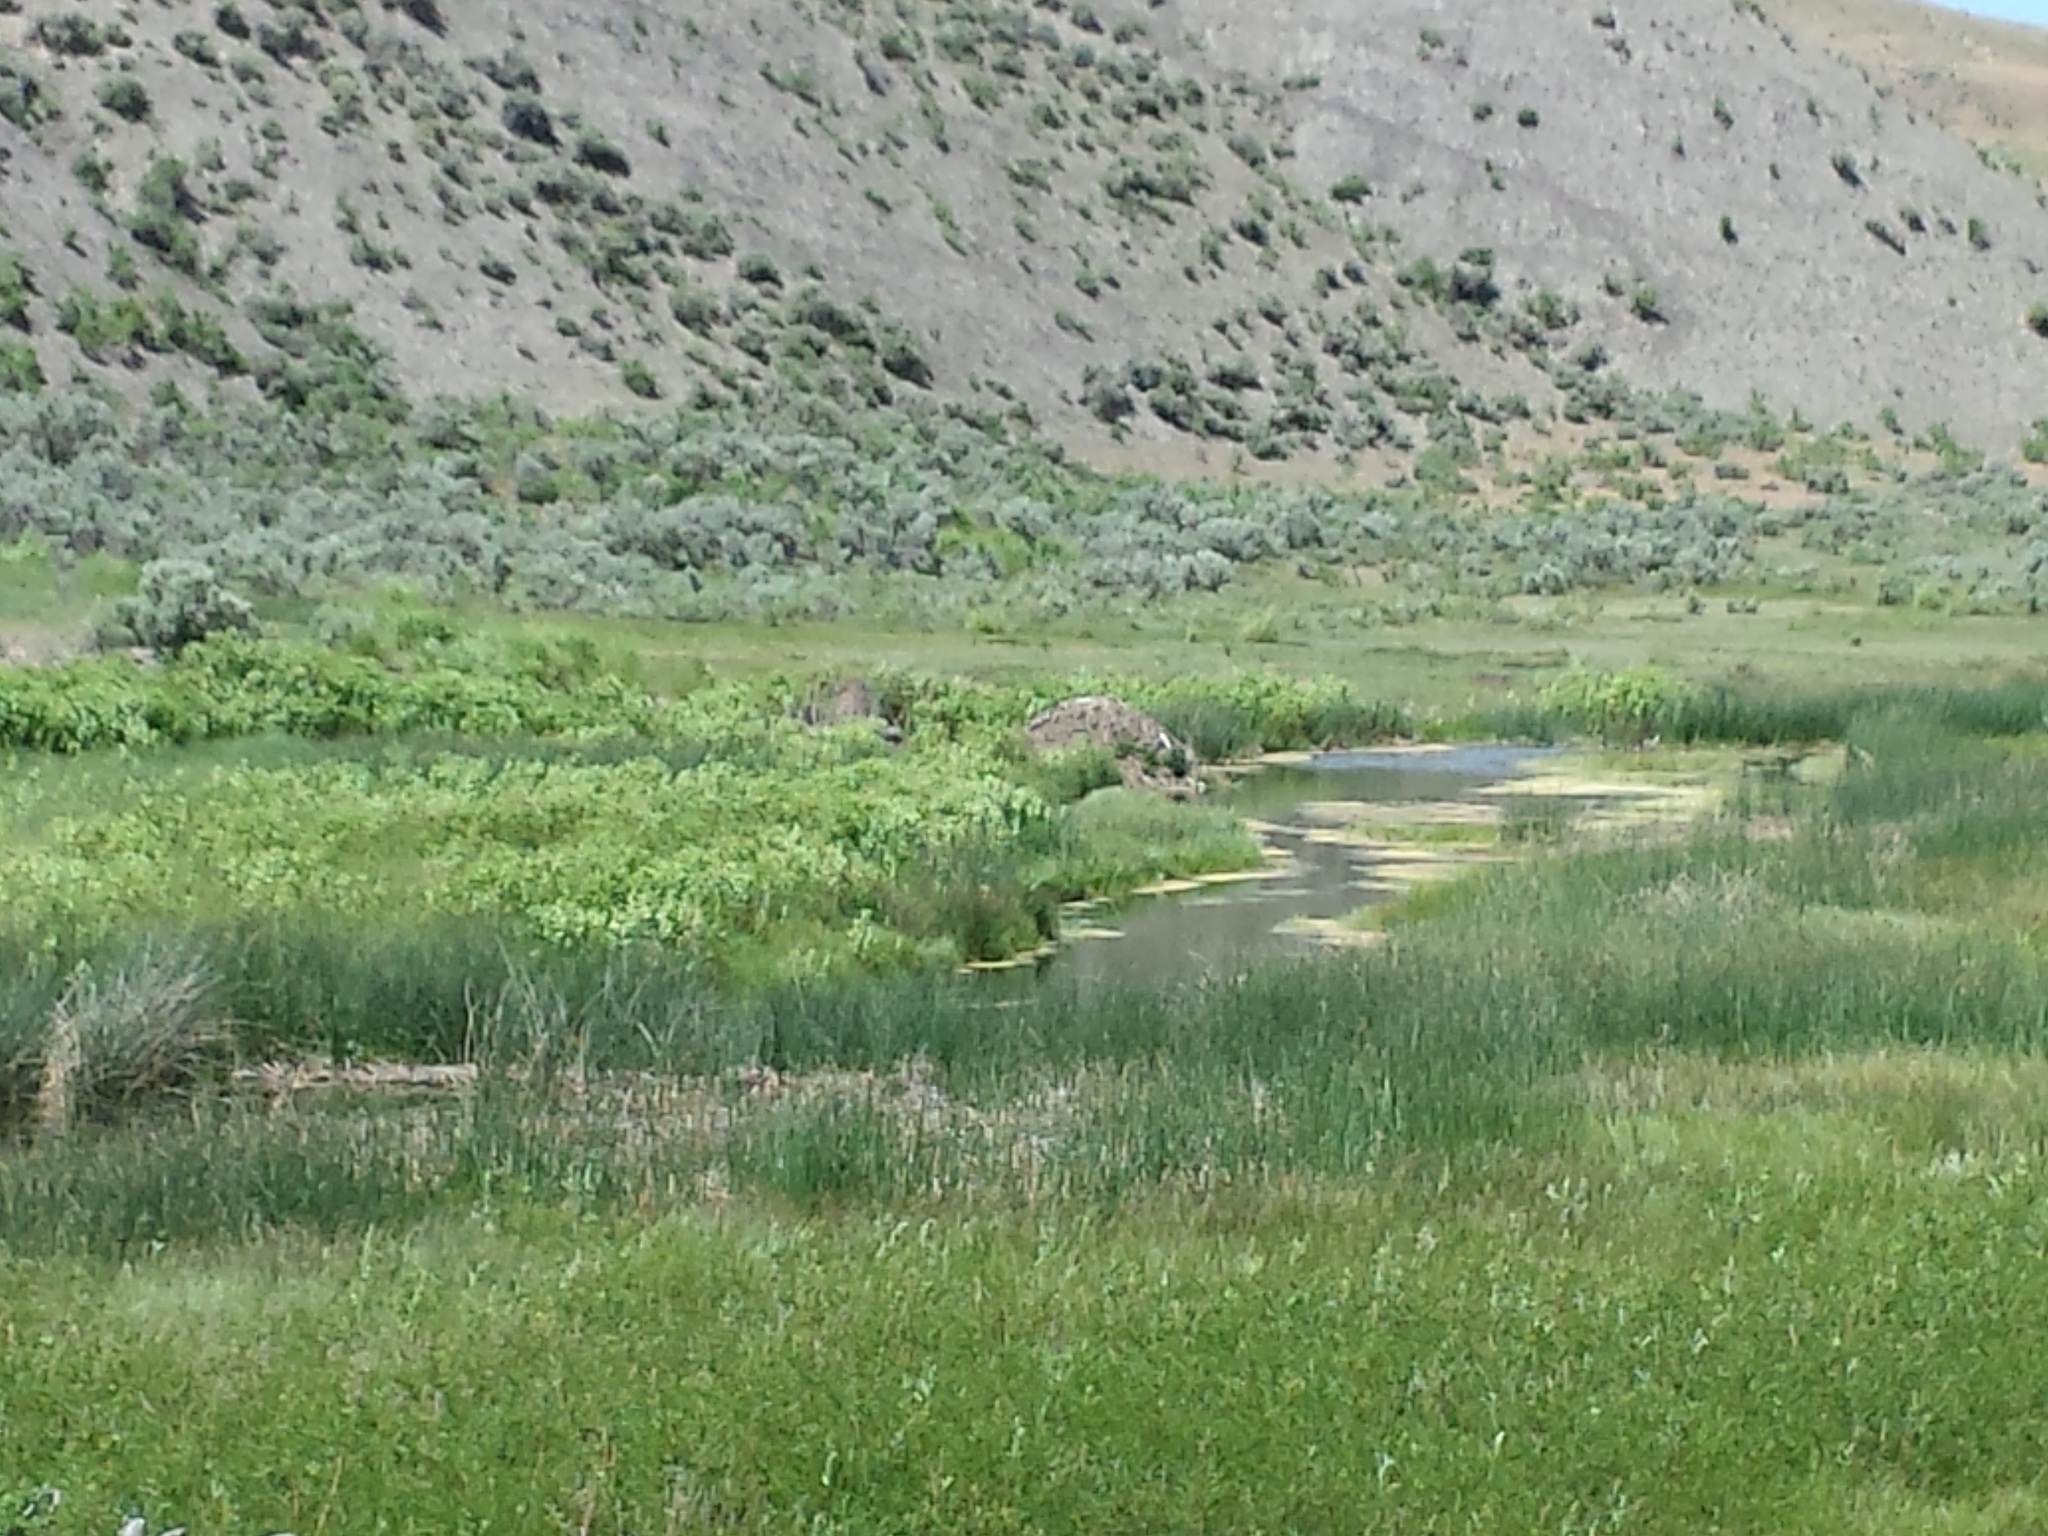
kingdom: Animalia
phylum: Chordata
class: Mammalia
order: Rodentia
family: Castoridae
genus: Castor
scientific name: Castor canadensis
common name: American beaver
